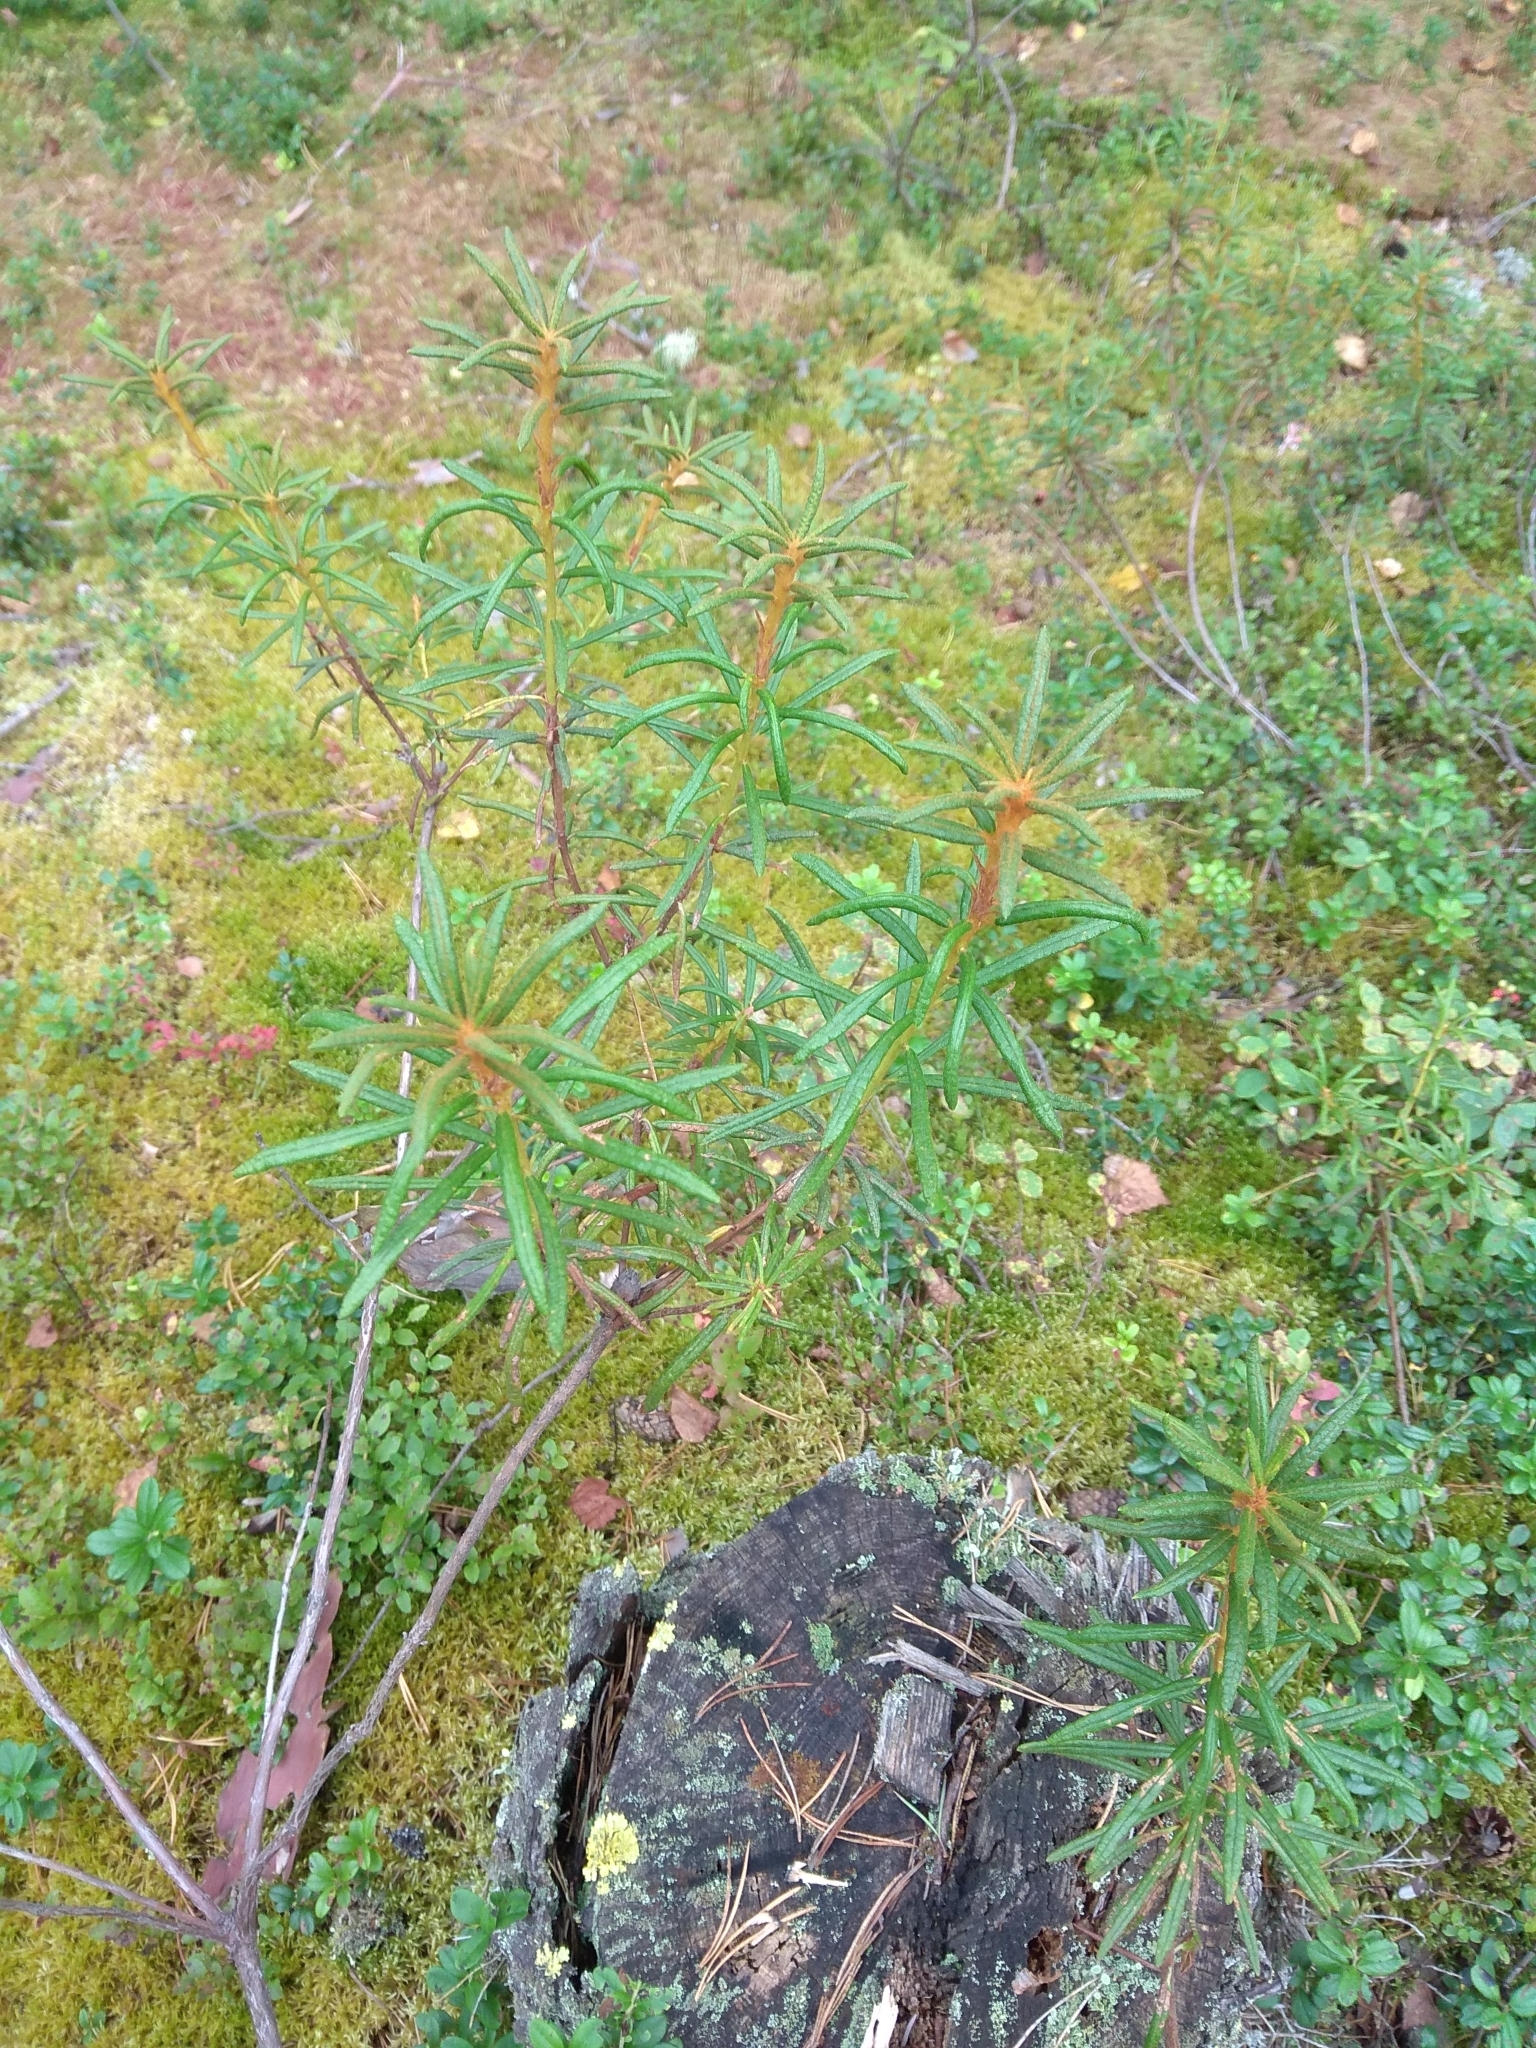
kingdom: Plantae
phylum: Tracheophyta
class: Magnoliopsida
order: Ericales
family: Ericaceae
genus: Rhododendron
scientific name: Rhododendron tomentosum
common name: Marsh labrador tea
